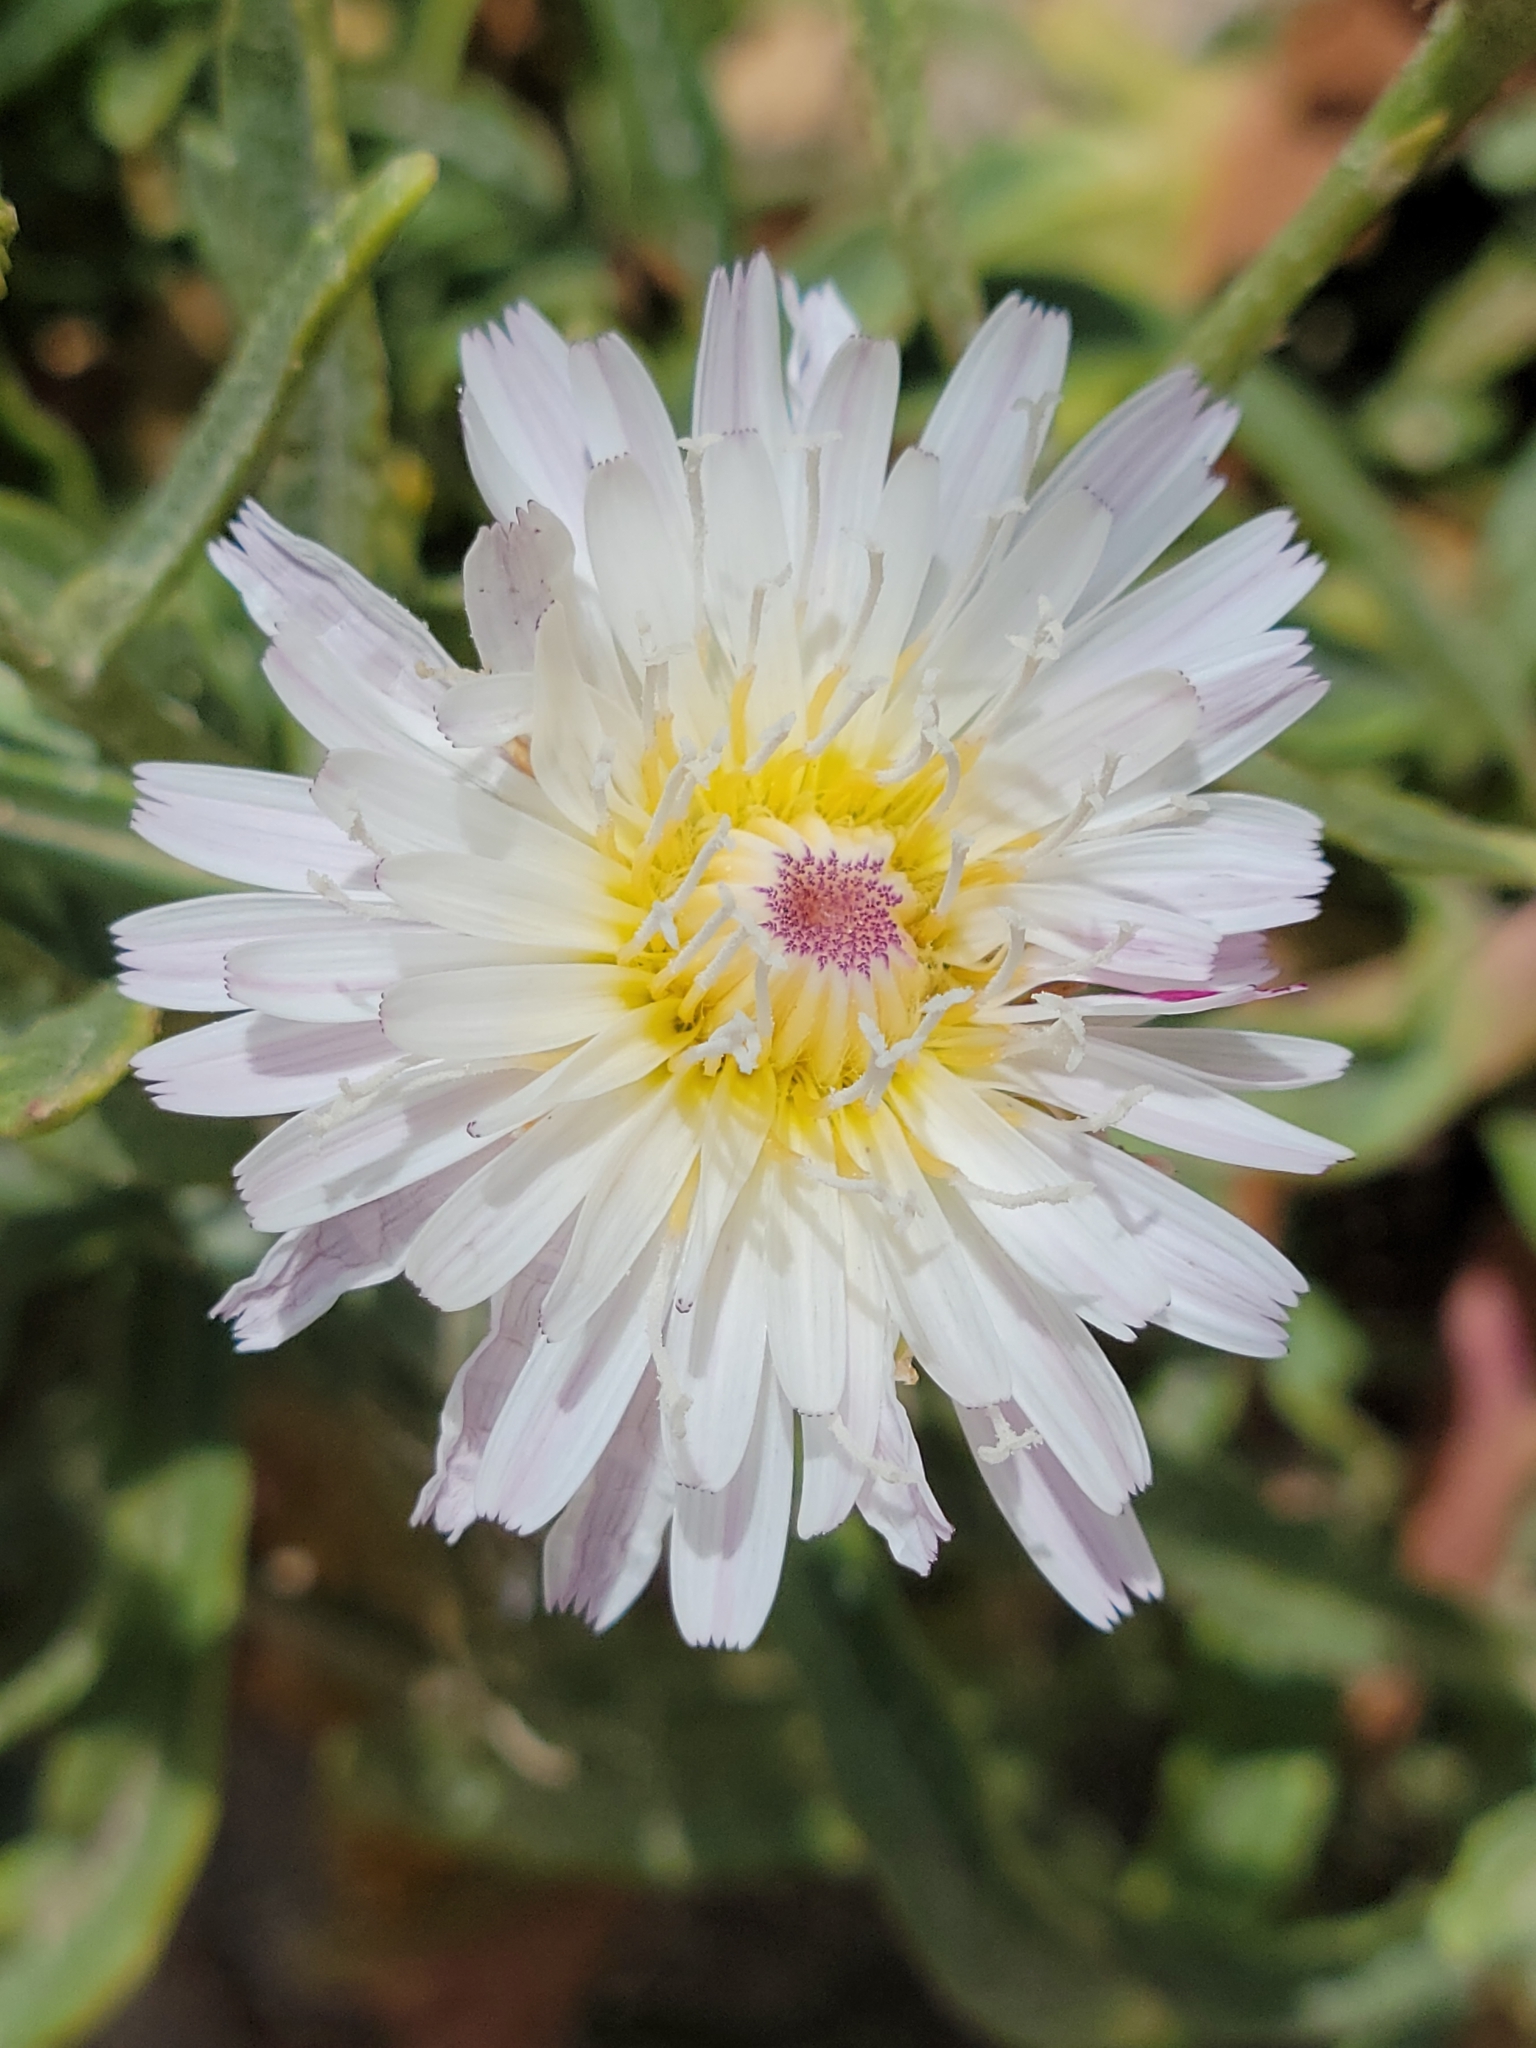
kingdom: Plantae
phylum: Tracheophyta
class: Magnoliopsida
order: Asterales
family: Asteraceae
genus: Malacothrix
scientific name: Malacothrix saxatilis
